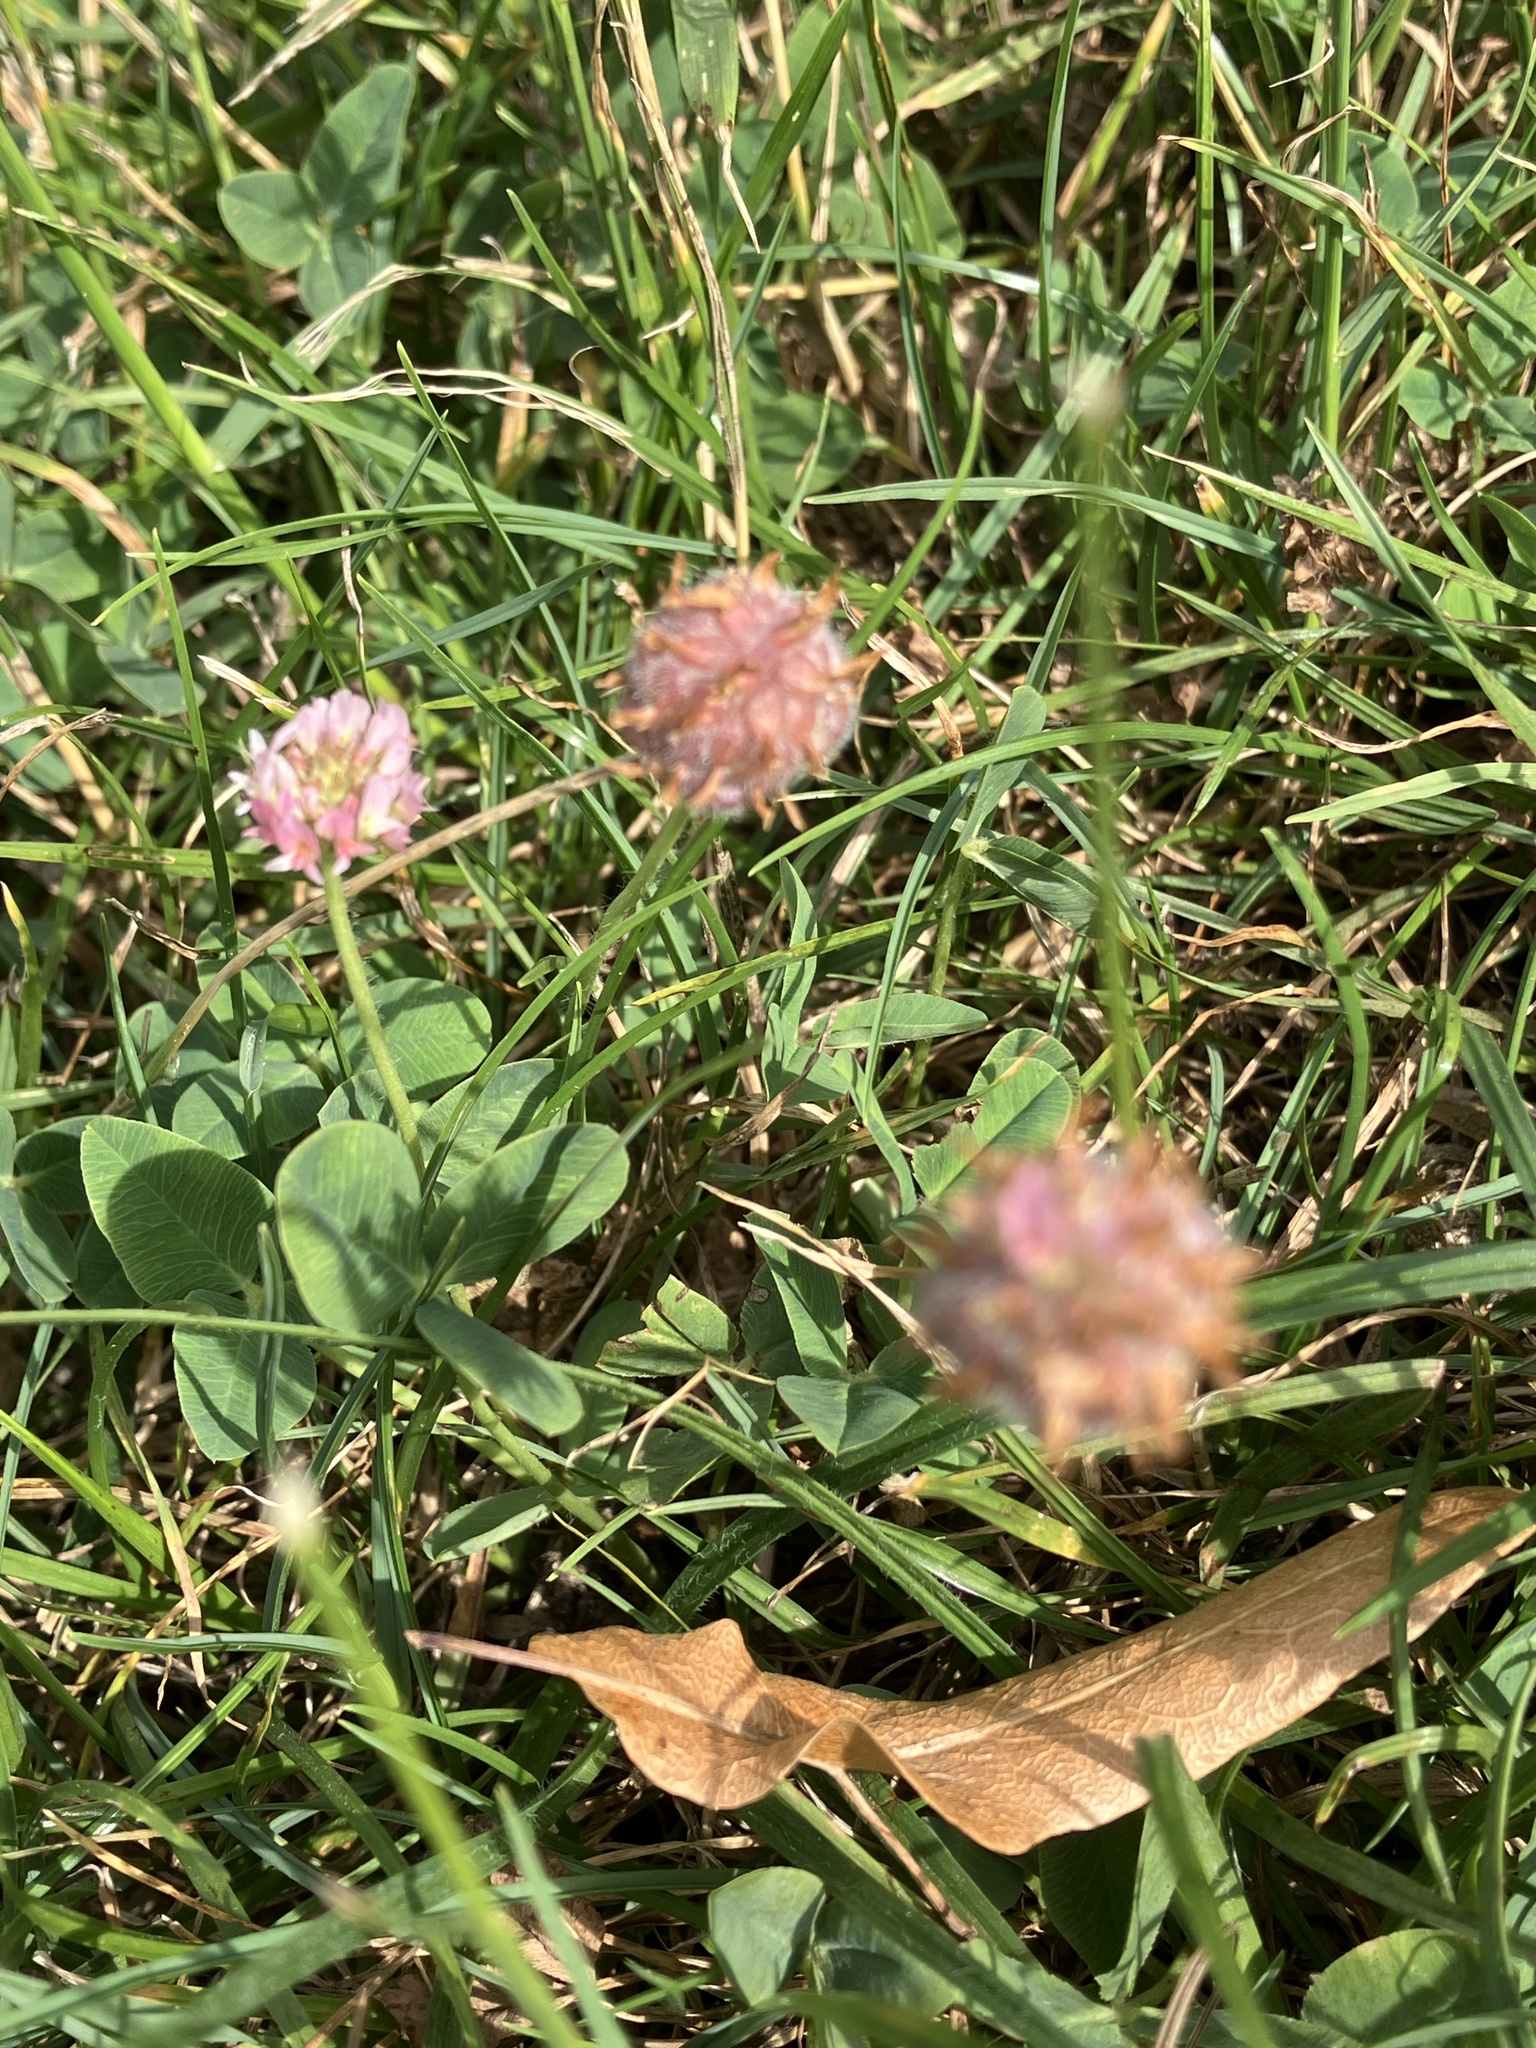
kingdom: Plantae
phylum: Tracheophyta
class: Magnoliopsida
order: Fabales
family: Fabaceae
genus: Trifolium
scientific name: Trifolium fragiferum
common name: Strawberry clover
